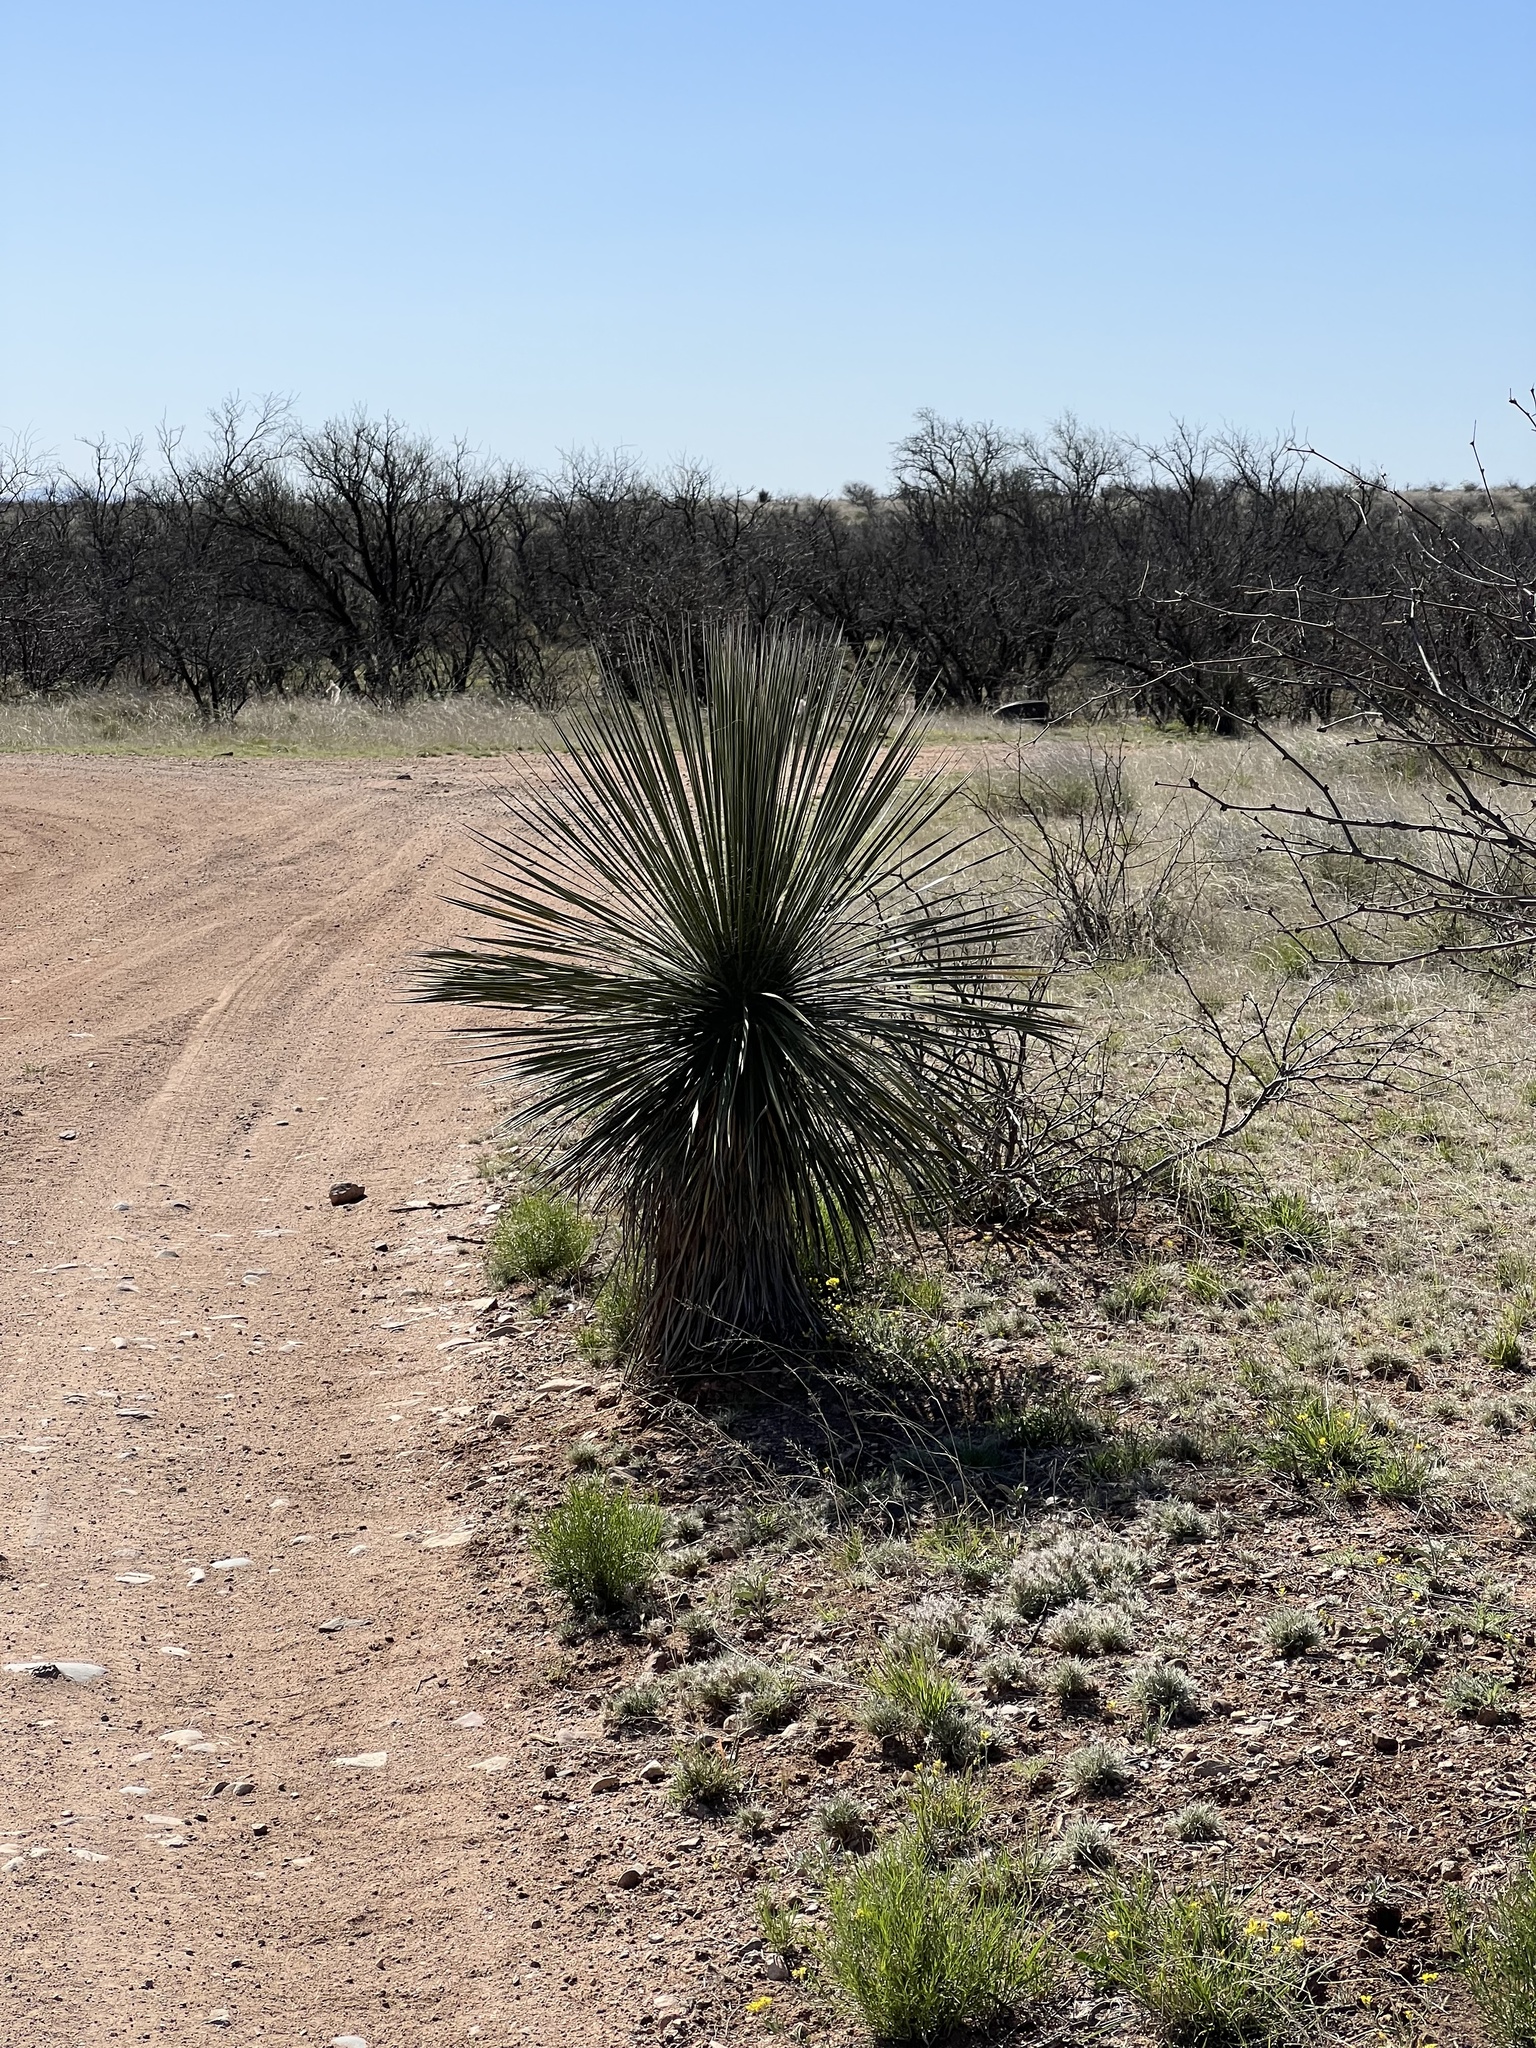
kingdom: Plantae
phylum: Tracheophyta
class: Liliopsida
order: Asparagales
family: Asparagaceae
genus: Yucca
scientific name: Yucca elata
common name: Palmella
